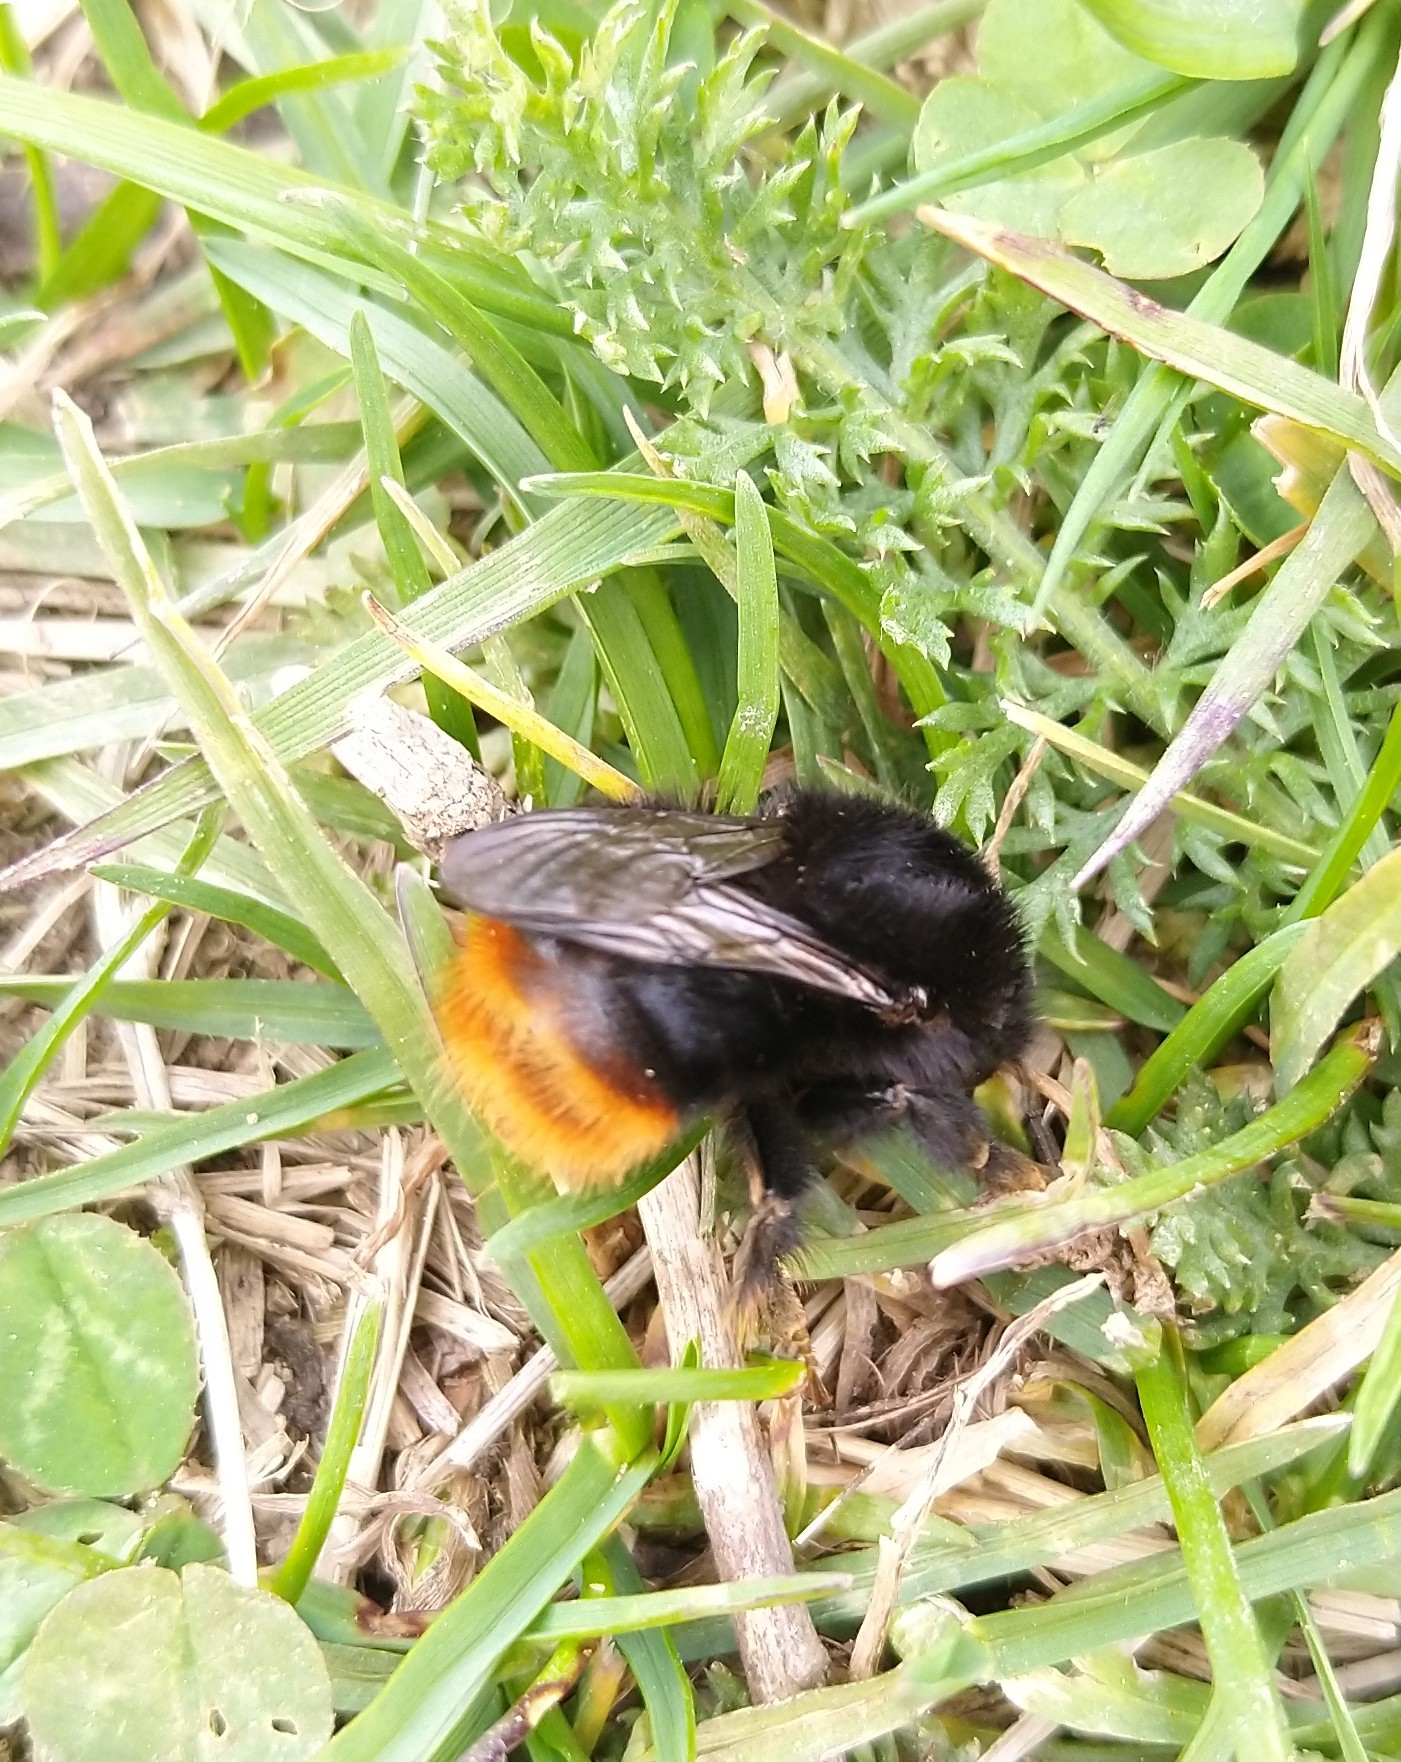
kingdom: Animalia
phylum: Arthropoda
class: Insecta
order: Hymenoptera
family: Apidae
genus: Bombus
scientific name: Bombus lapidarius
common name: Large red-tailed humble-bee
